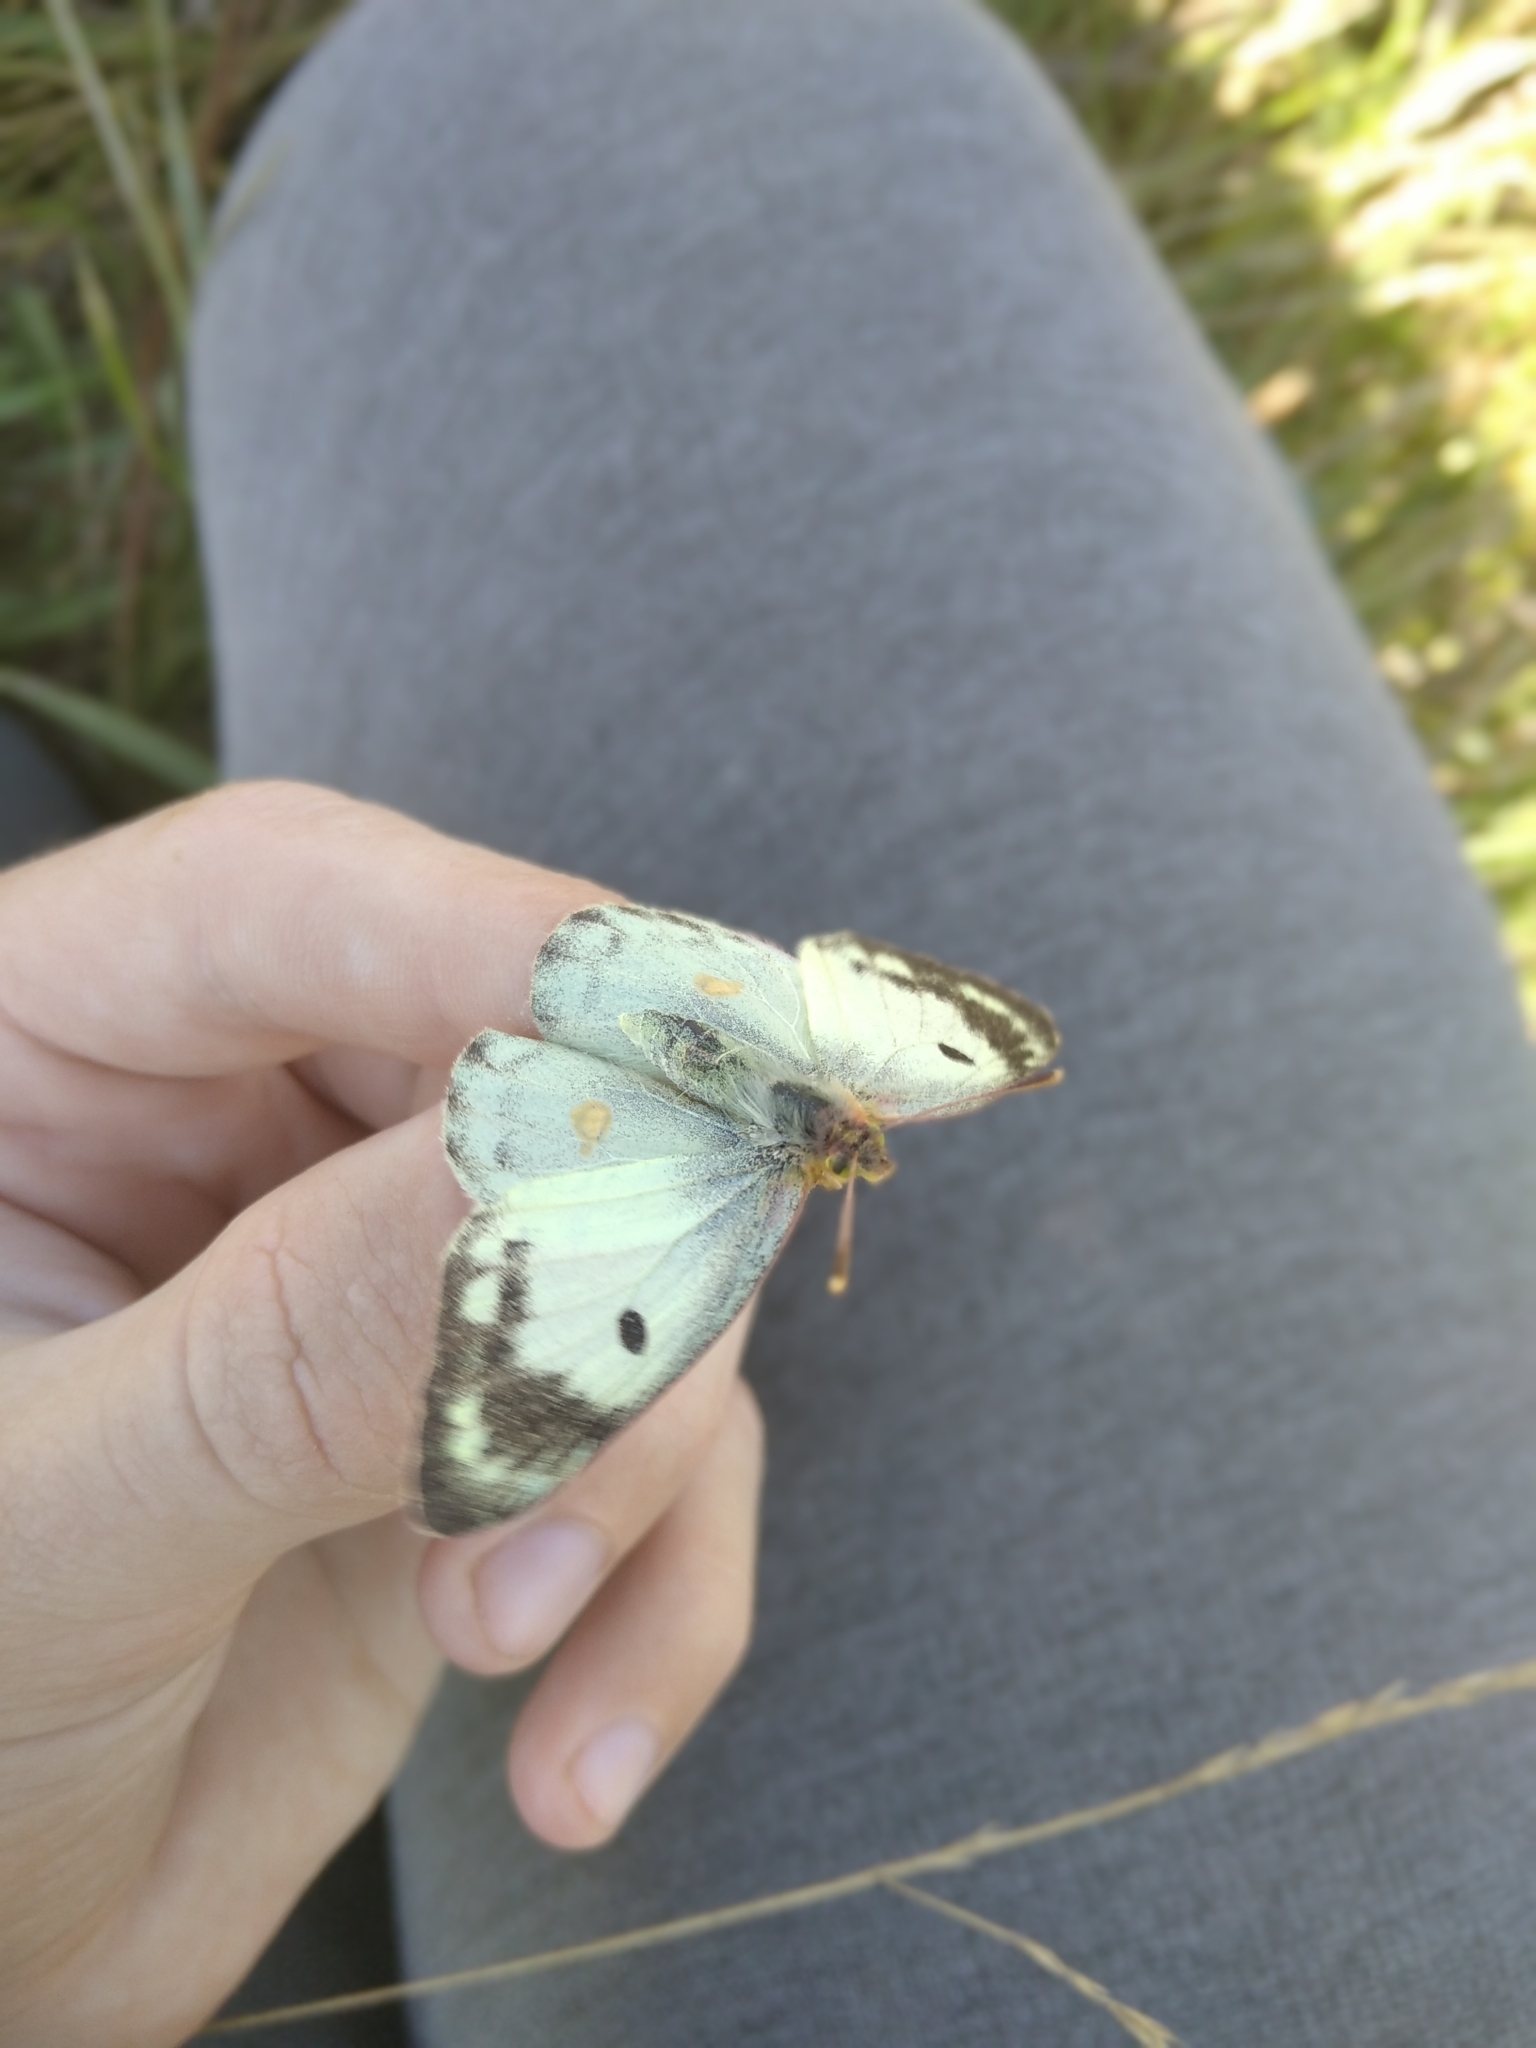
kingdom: Animalia
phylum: Arthropoda
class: Insecta
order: Lepidoptera
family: Pieridae
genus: Colias
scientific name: Colias hyale
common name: Pale clouded yellow
